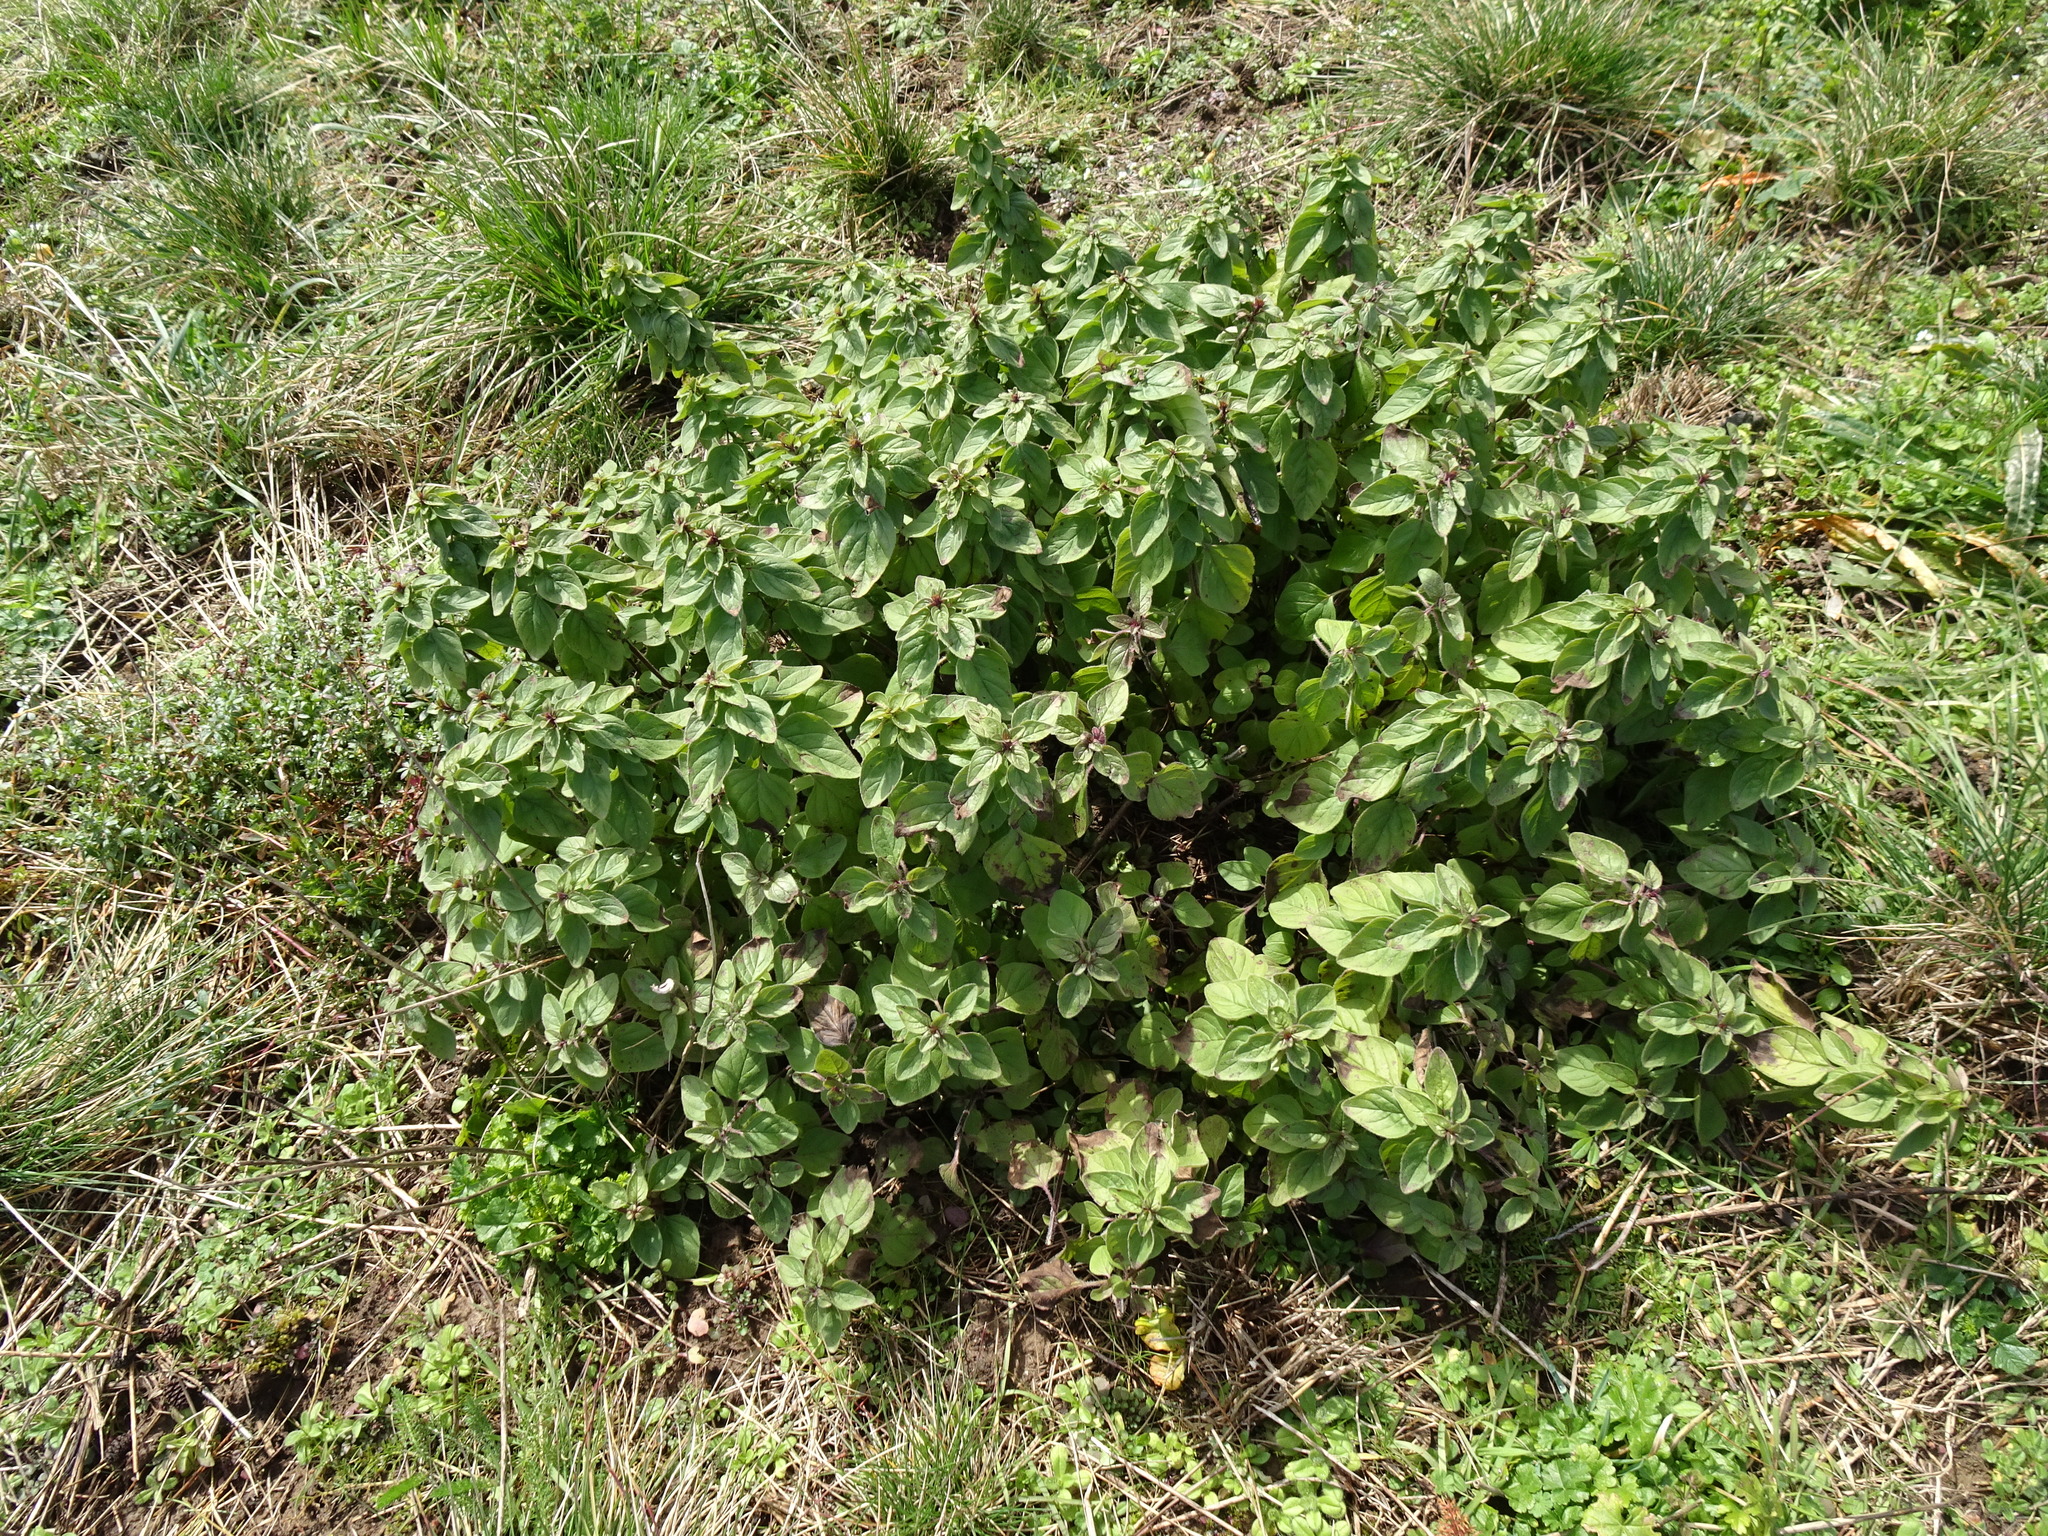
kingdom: Plantae
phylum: Tracheophyta
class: Magnoliopsida
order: Lamiales
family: Lamiaceae
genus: Origanum
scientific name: Origanum vulgare
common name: Wild marjoram
